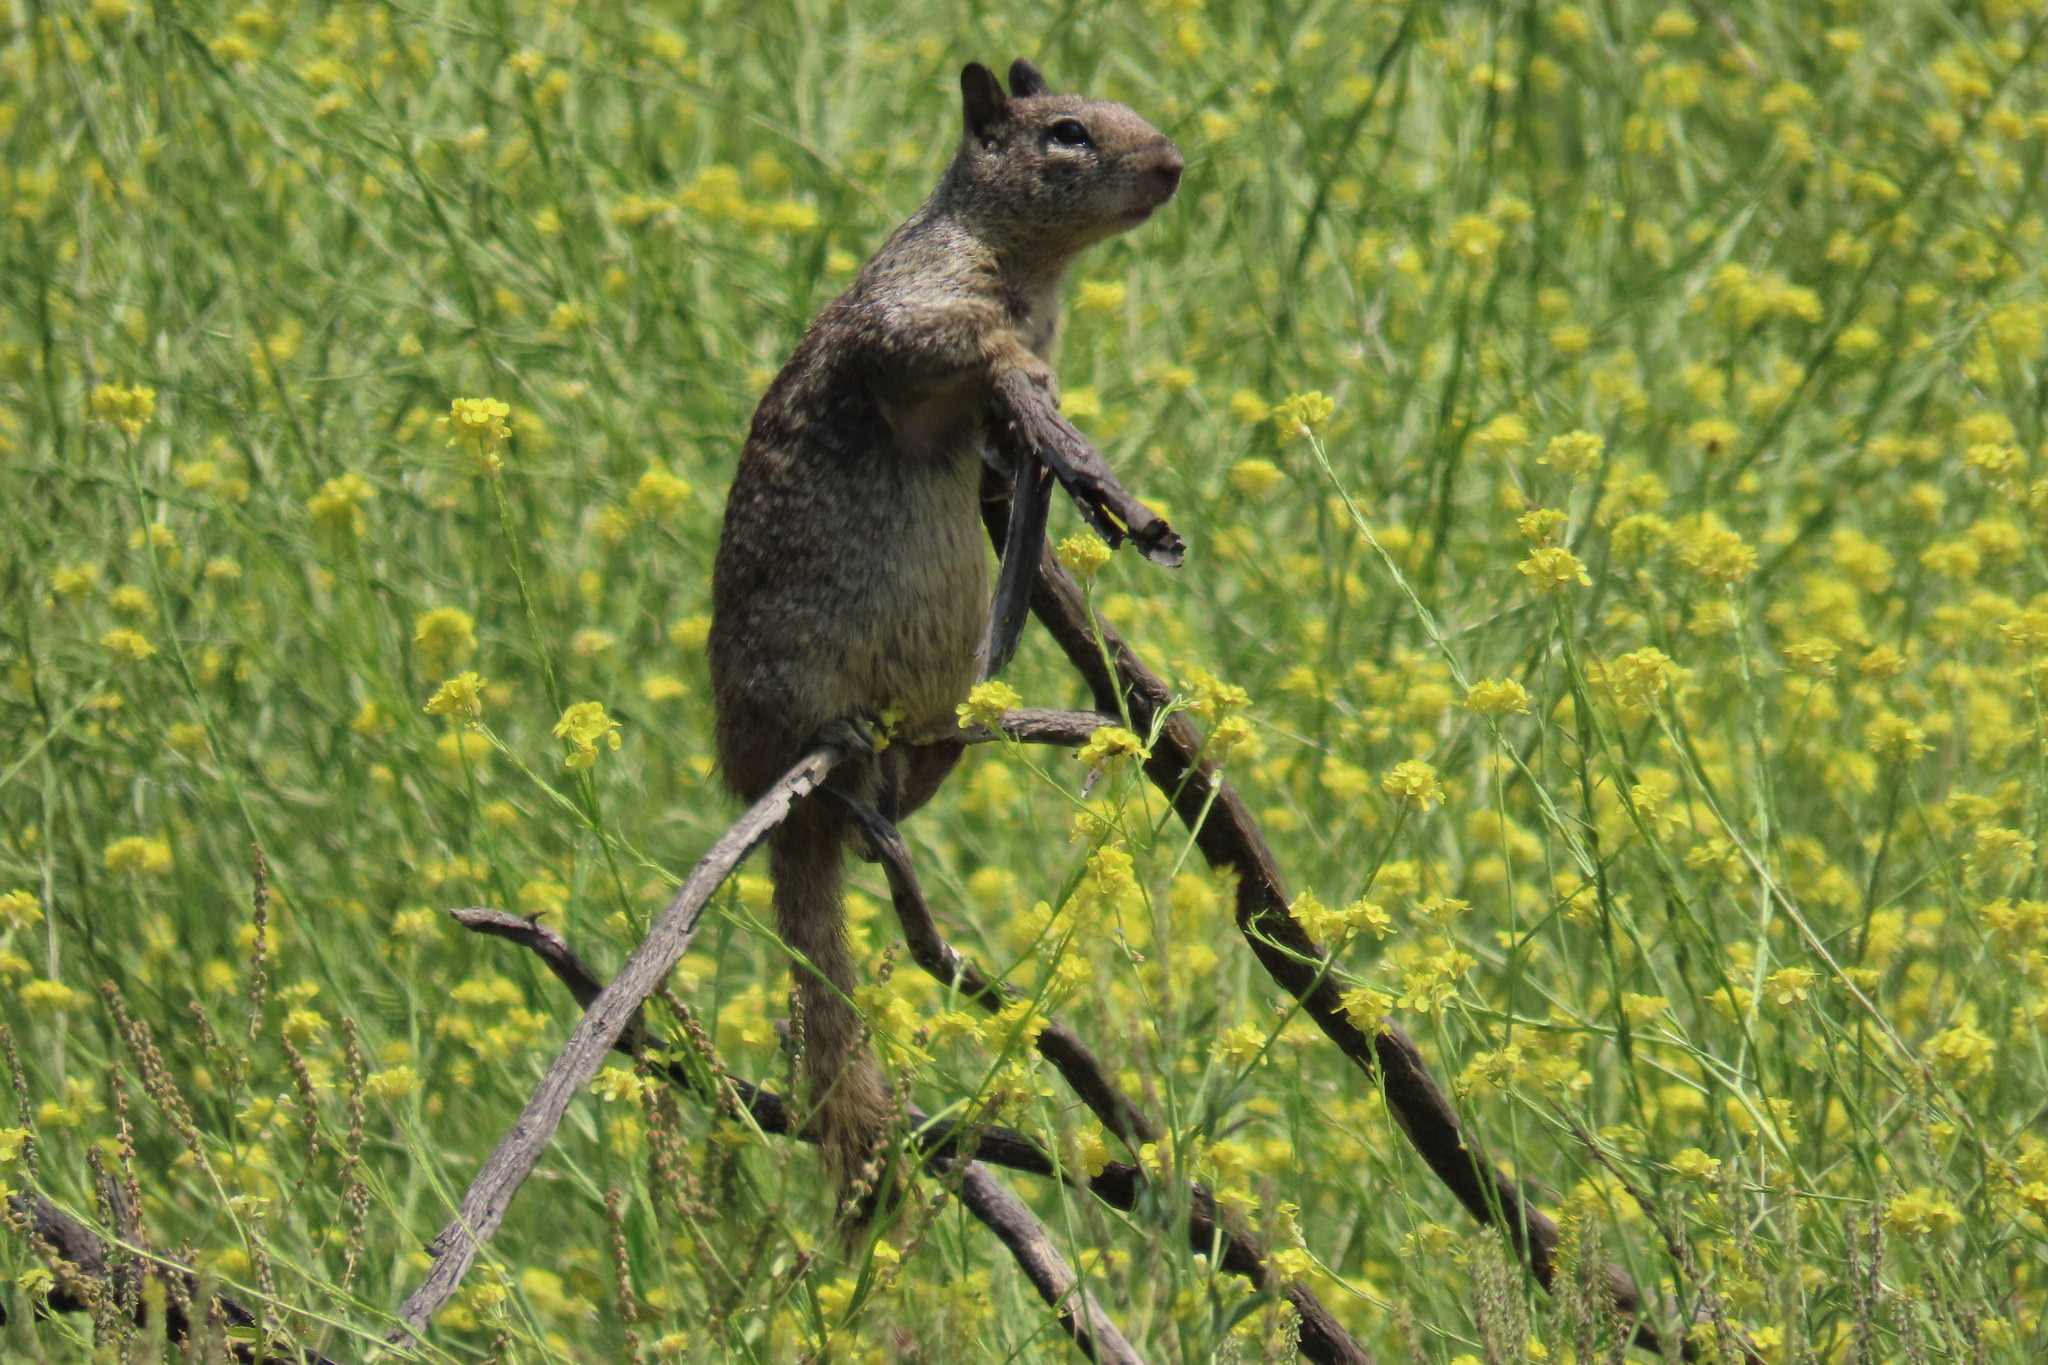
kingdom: Animalia
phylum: Chordata
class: Mammalia
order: Rodentia
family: Sciuridae
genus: Otospermophilus
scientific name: Otospermophilus beecheyi
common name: California ground squirrel
